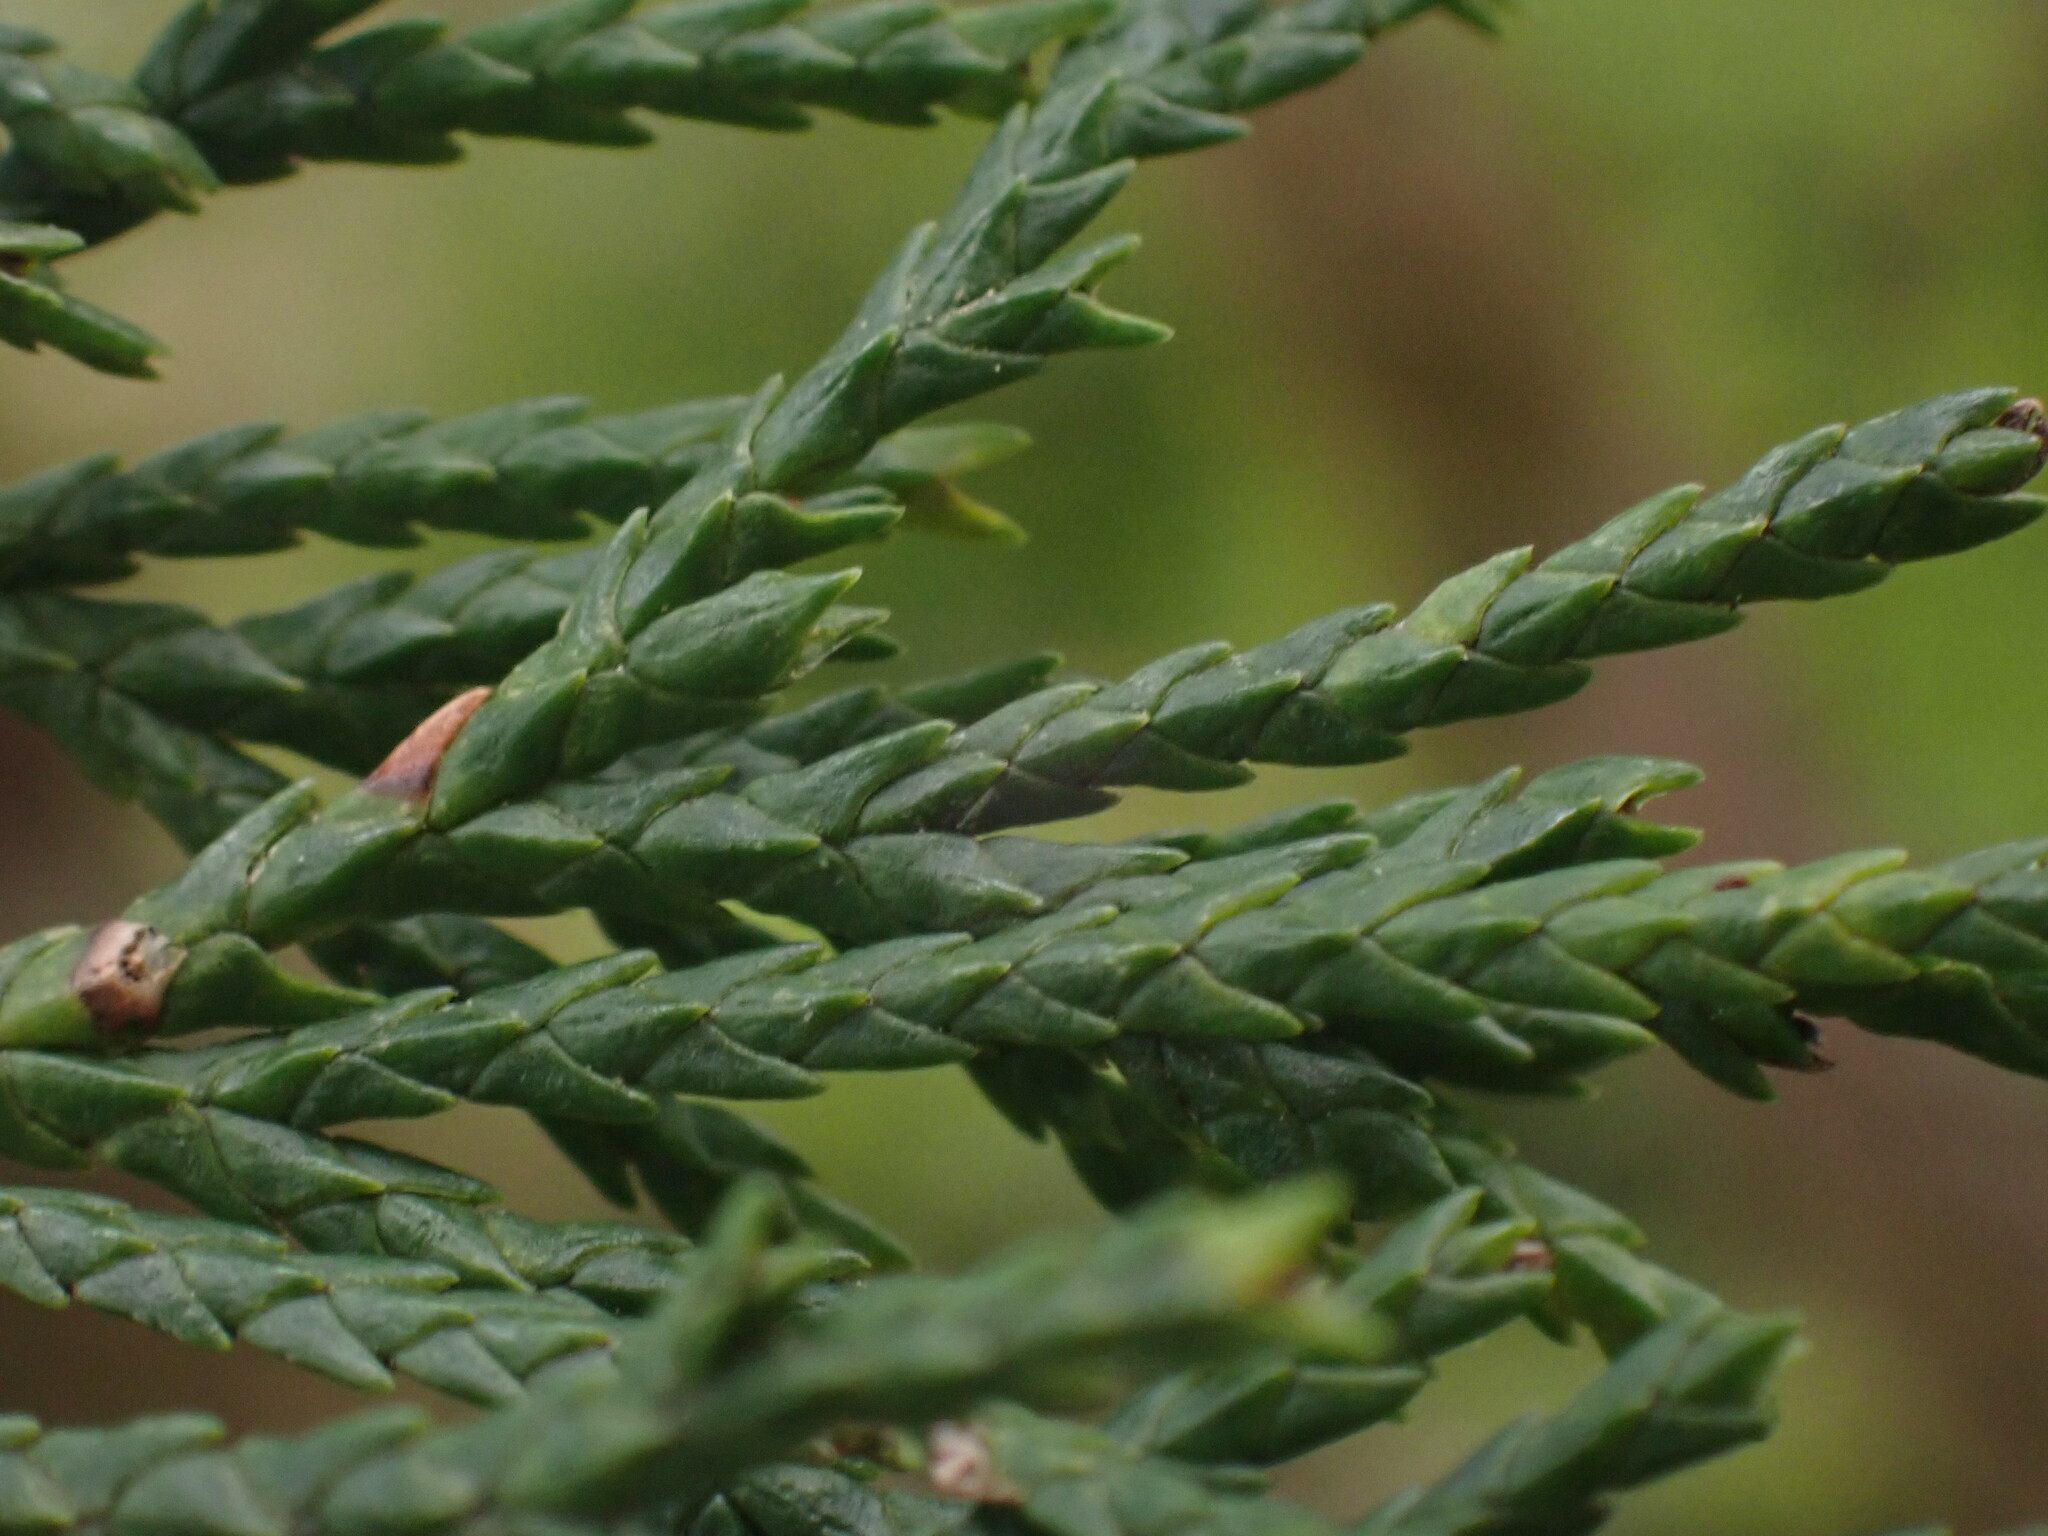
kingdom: Plantae
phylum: Tracheophyta
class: Pinopsida
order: Pinales
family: Cupressaceae
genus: Xanthocyparis
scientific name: Xanthocyparis nootkatensis
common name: Nootka cypress
